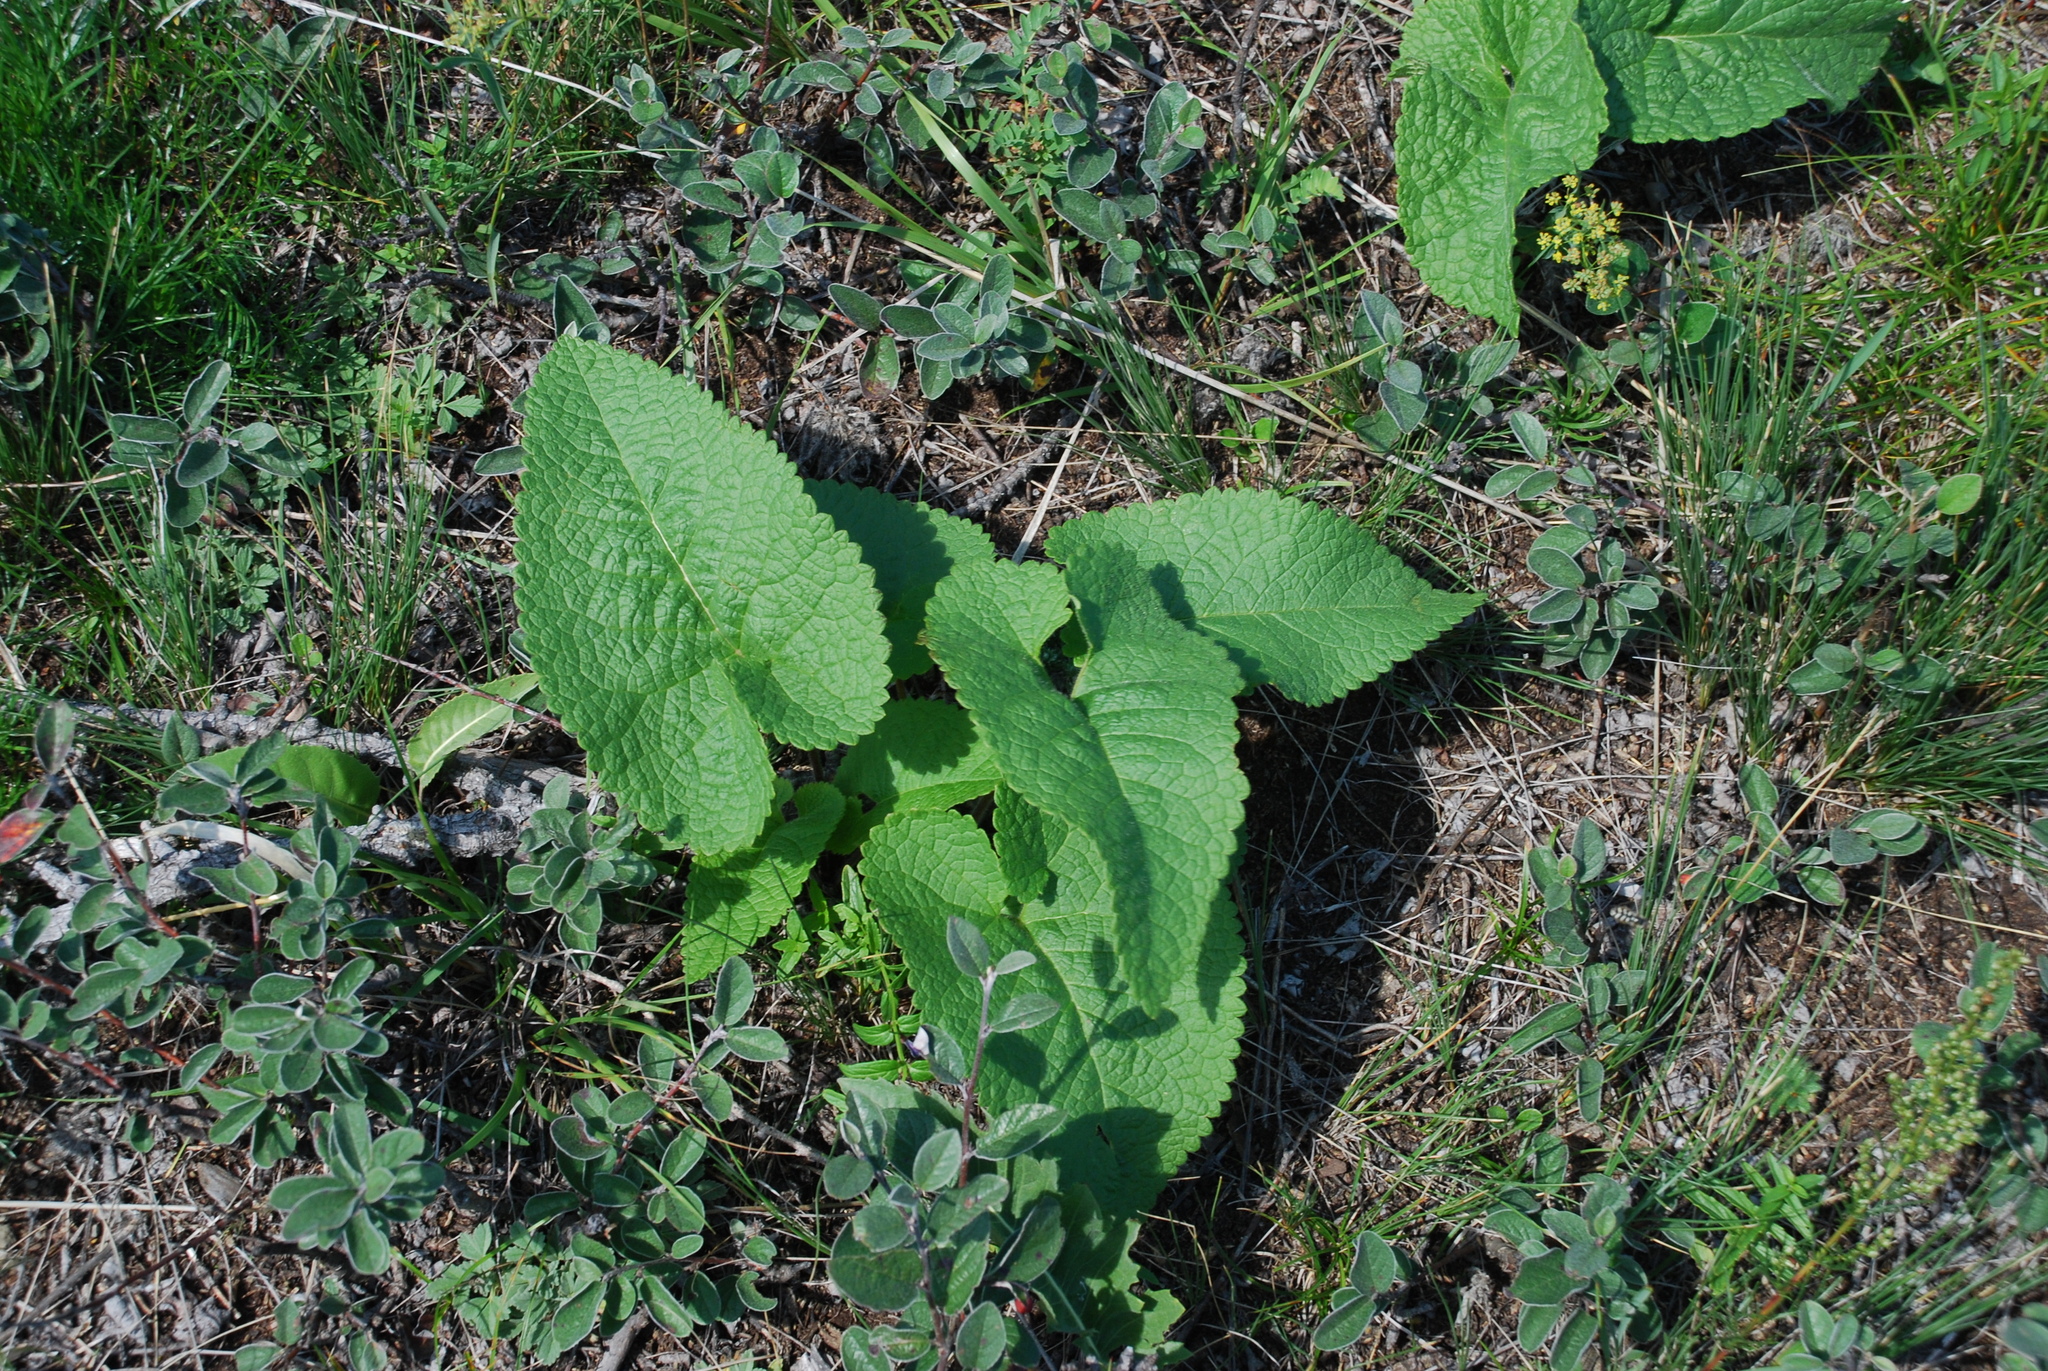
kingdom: Plantae
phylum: Tracheophyta
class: Magnoliopsida
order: Lamiales
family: Lamiaceae
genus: Phlomoides
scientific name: Phlomoides tuberosa
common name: Tuberous jerusalem sage
